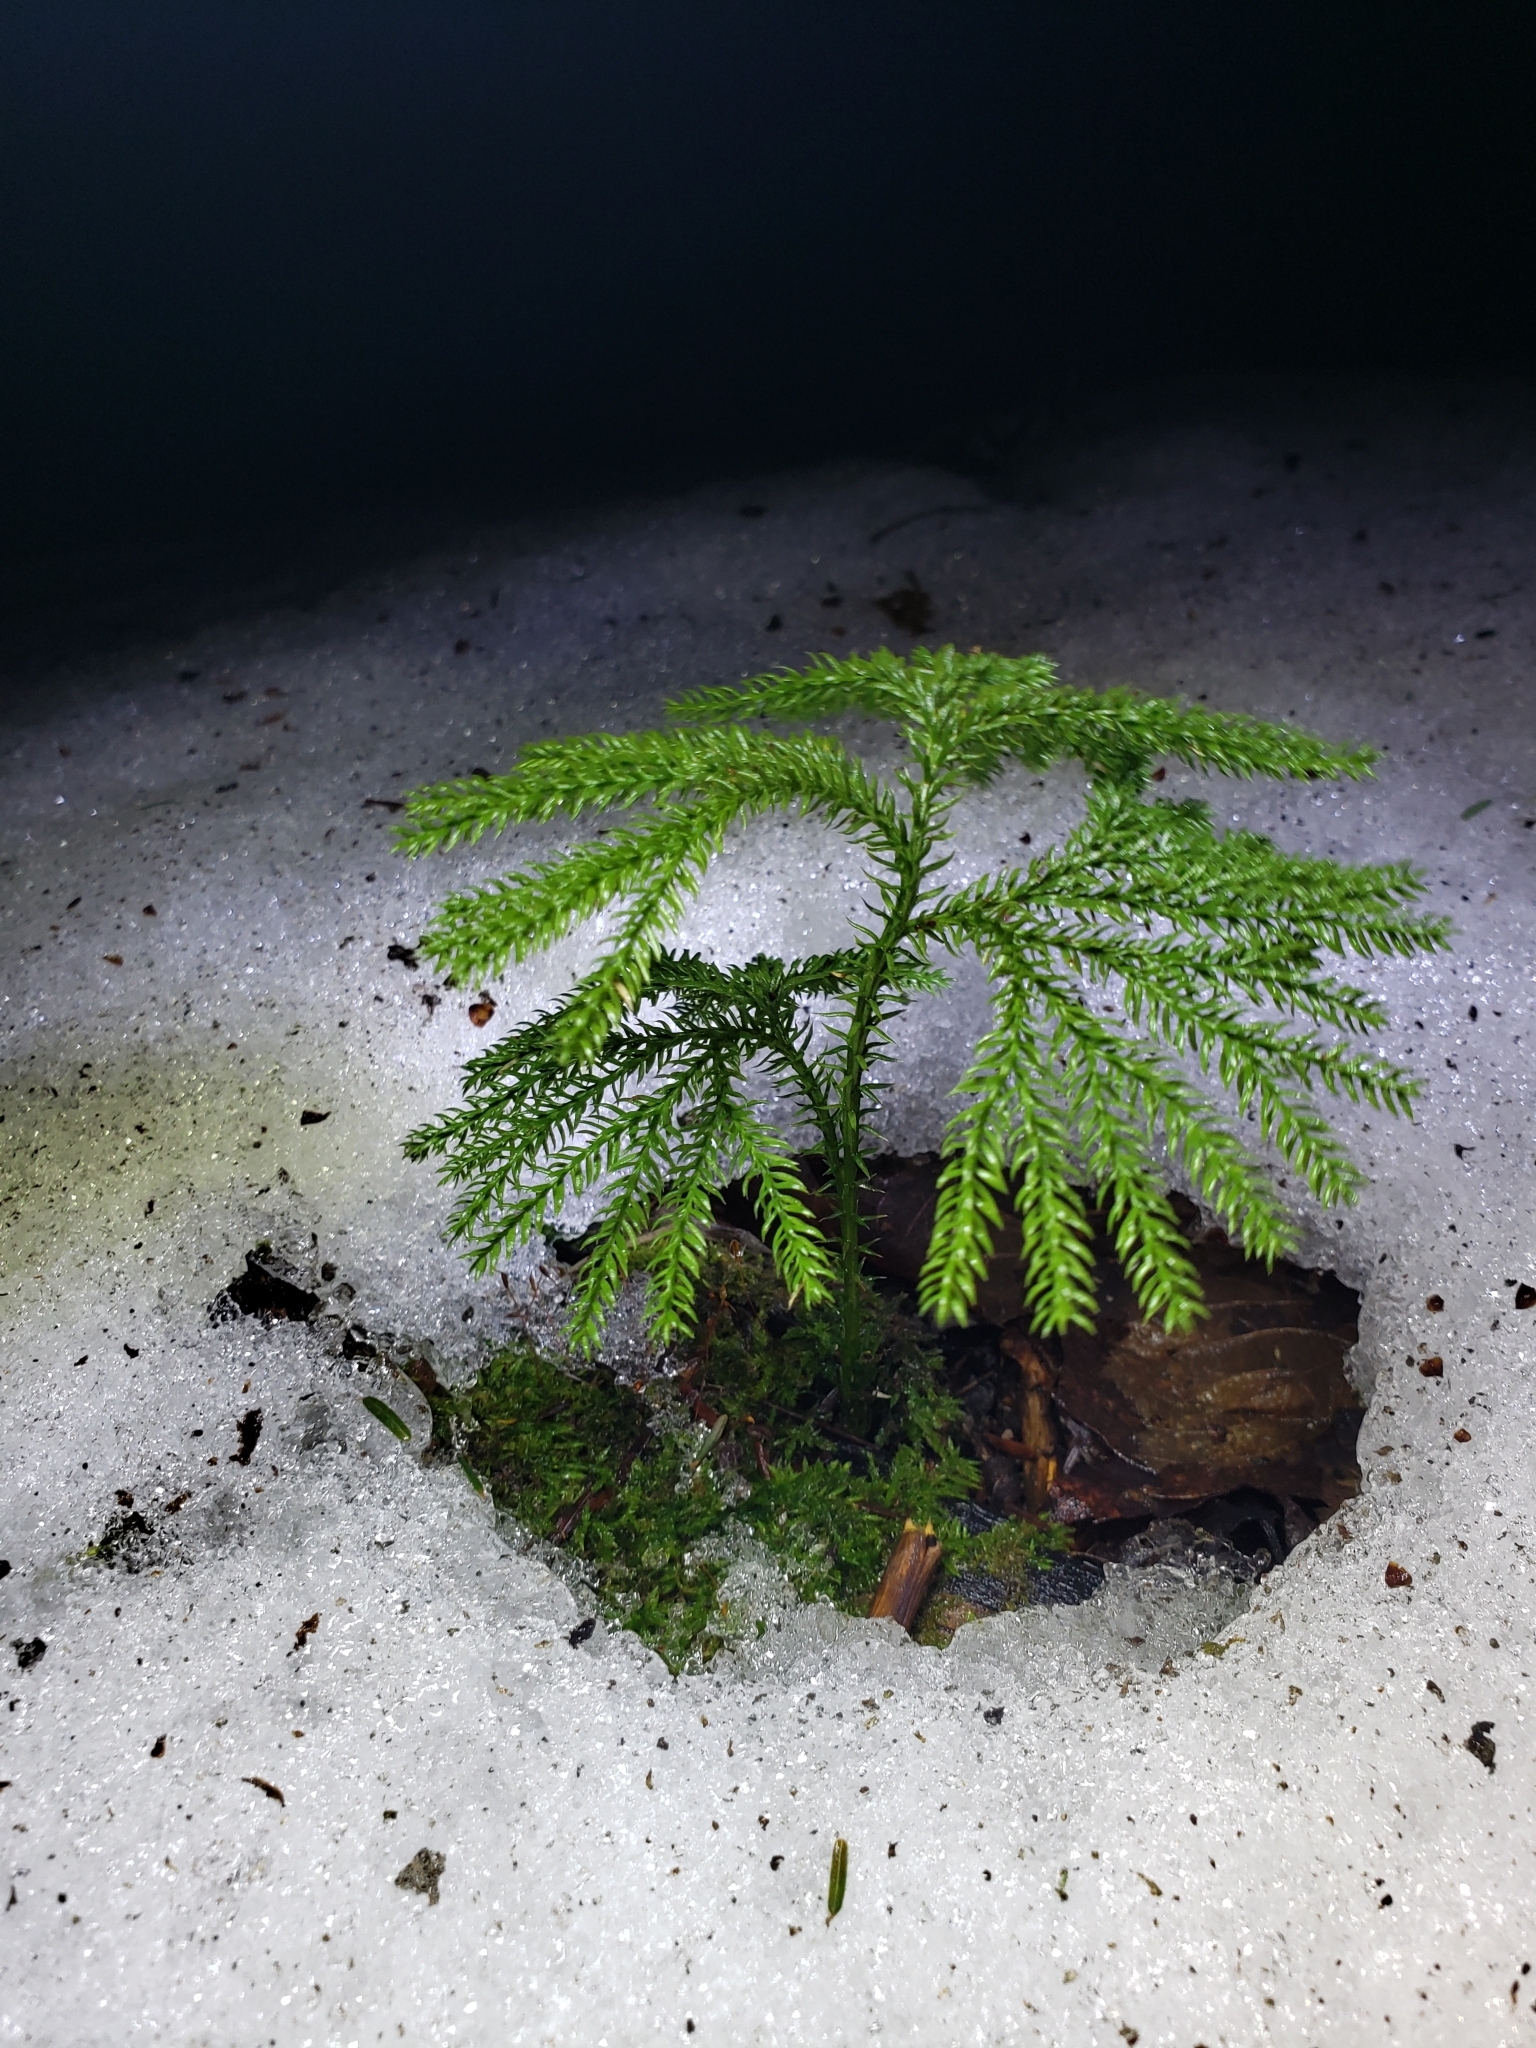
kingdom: Plantae
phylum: Tracheophyta
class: Lycopodiopsida
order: Lycopodiales
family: Lycopodiaceae
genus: Dendrolycopodium
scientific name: Dendrolycopodium dendroideum
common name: Northern tree-clubmoss
